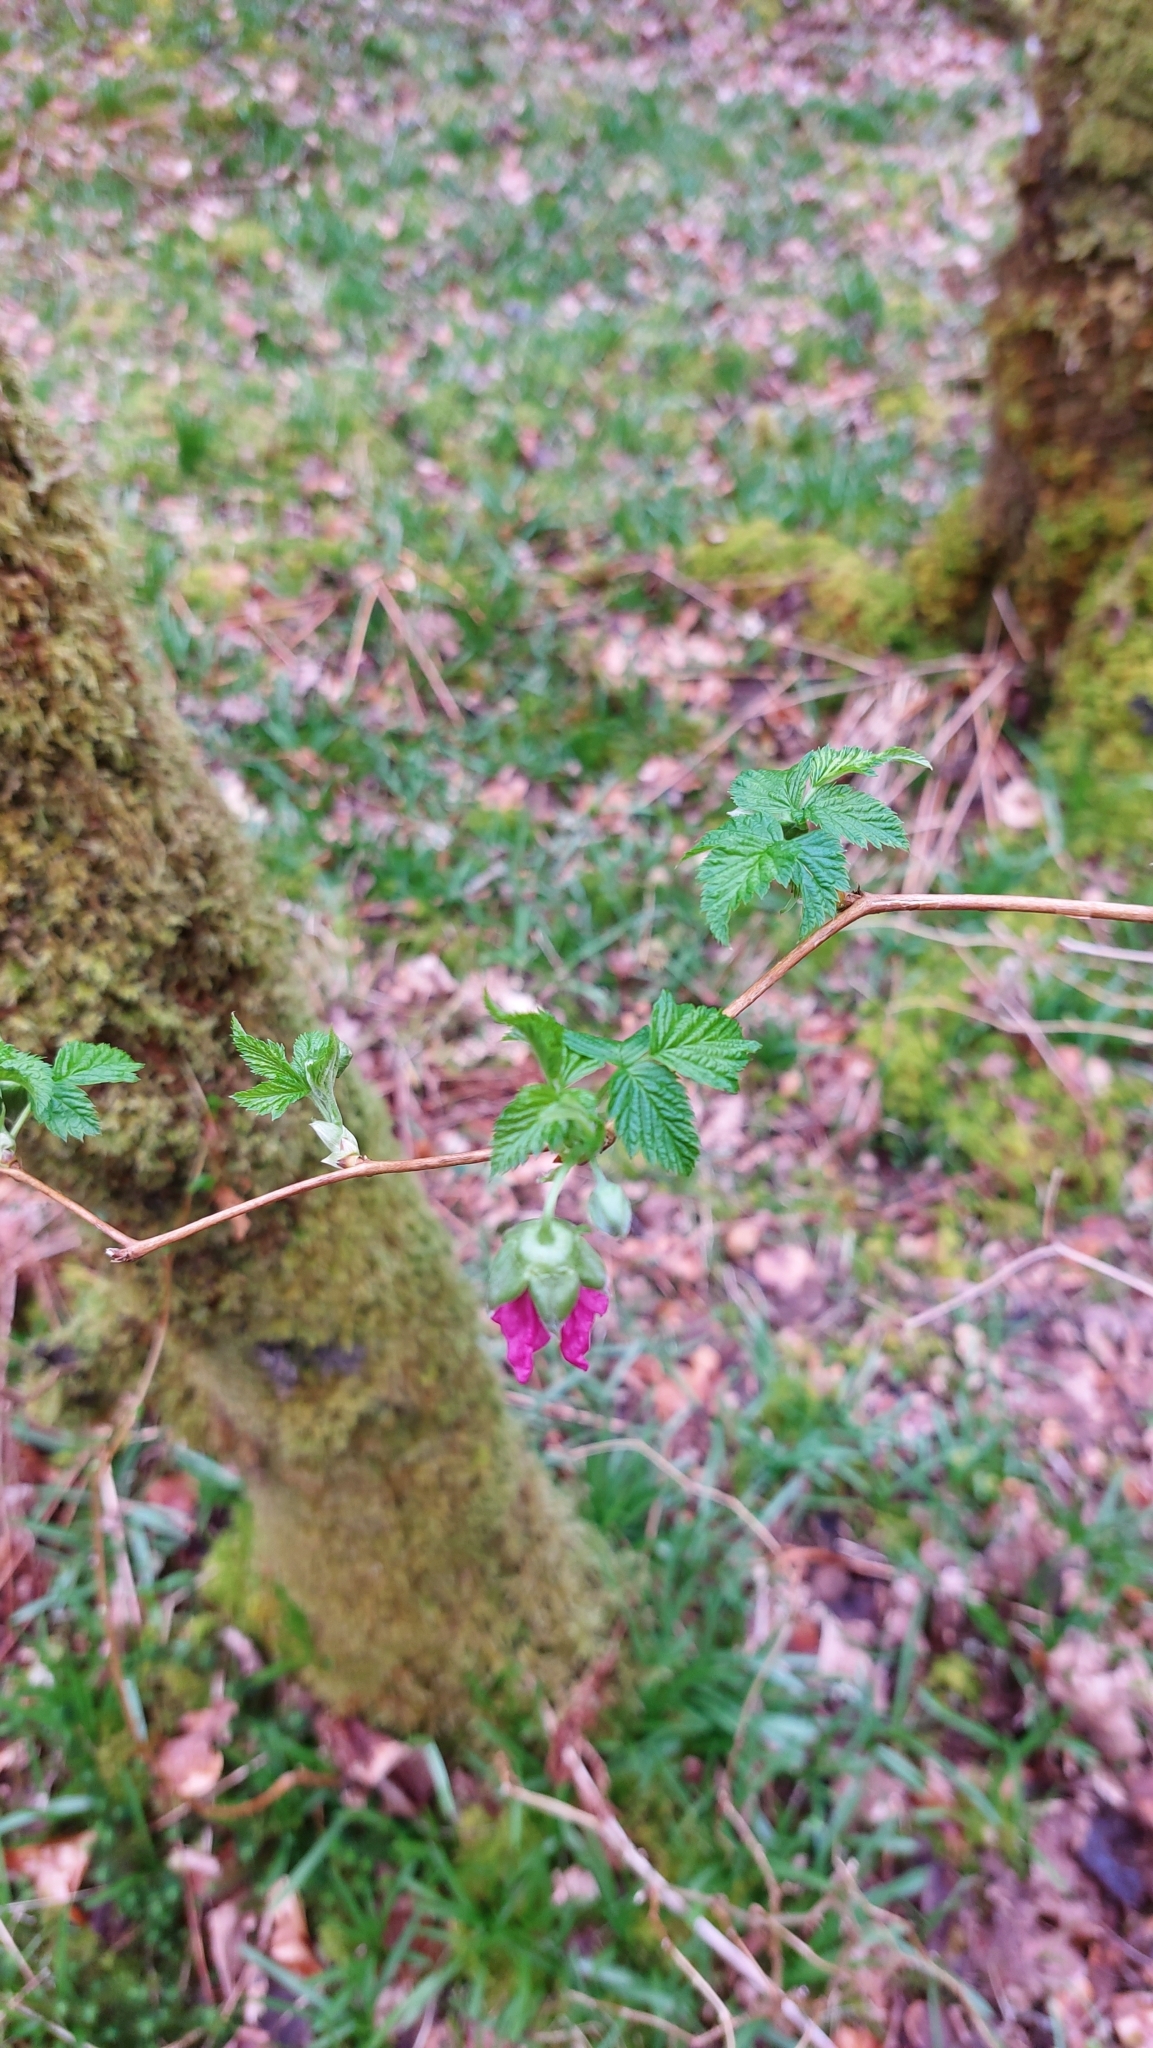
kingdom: Plantae
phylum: Tracheophyta
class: Magnoliopsida
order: Rosales
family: Rosaceae
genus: Rubus
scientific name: Rubus spectabilis
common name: Salmonberry
